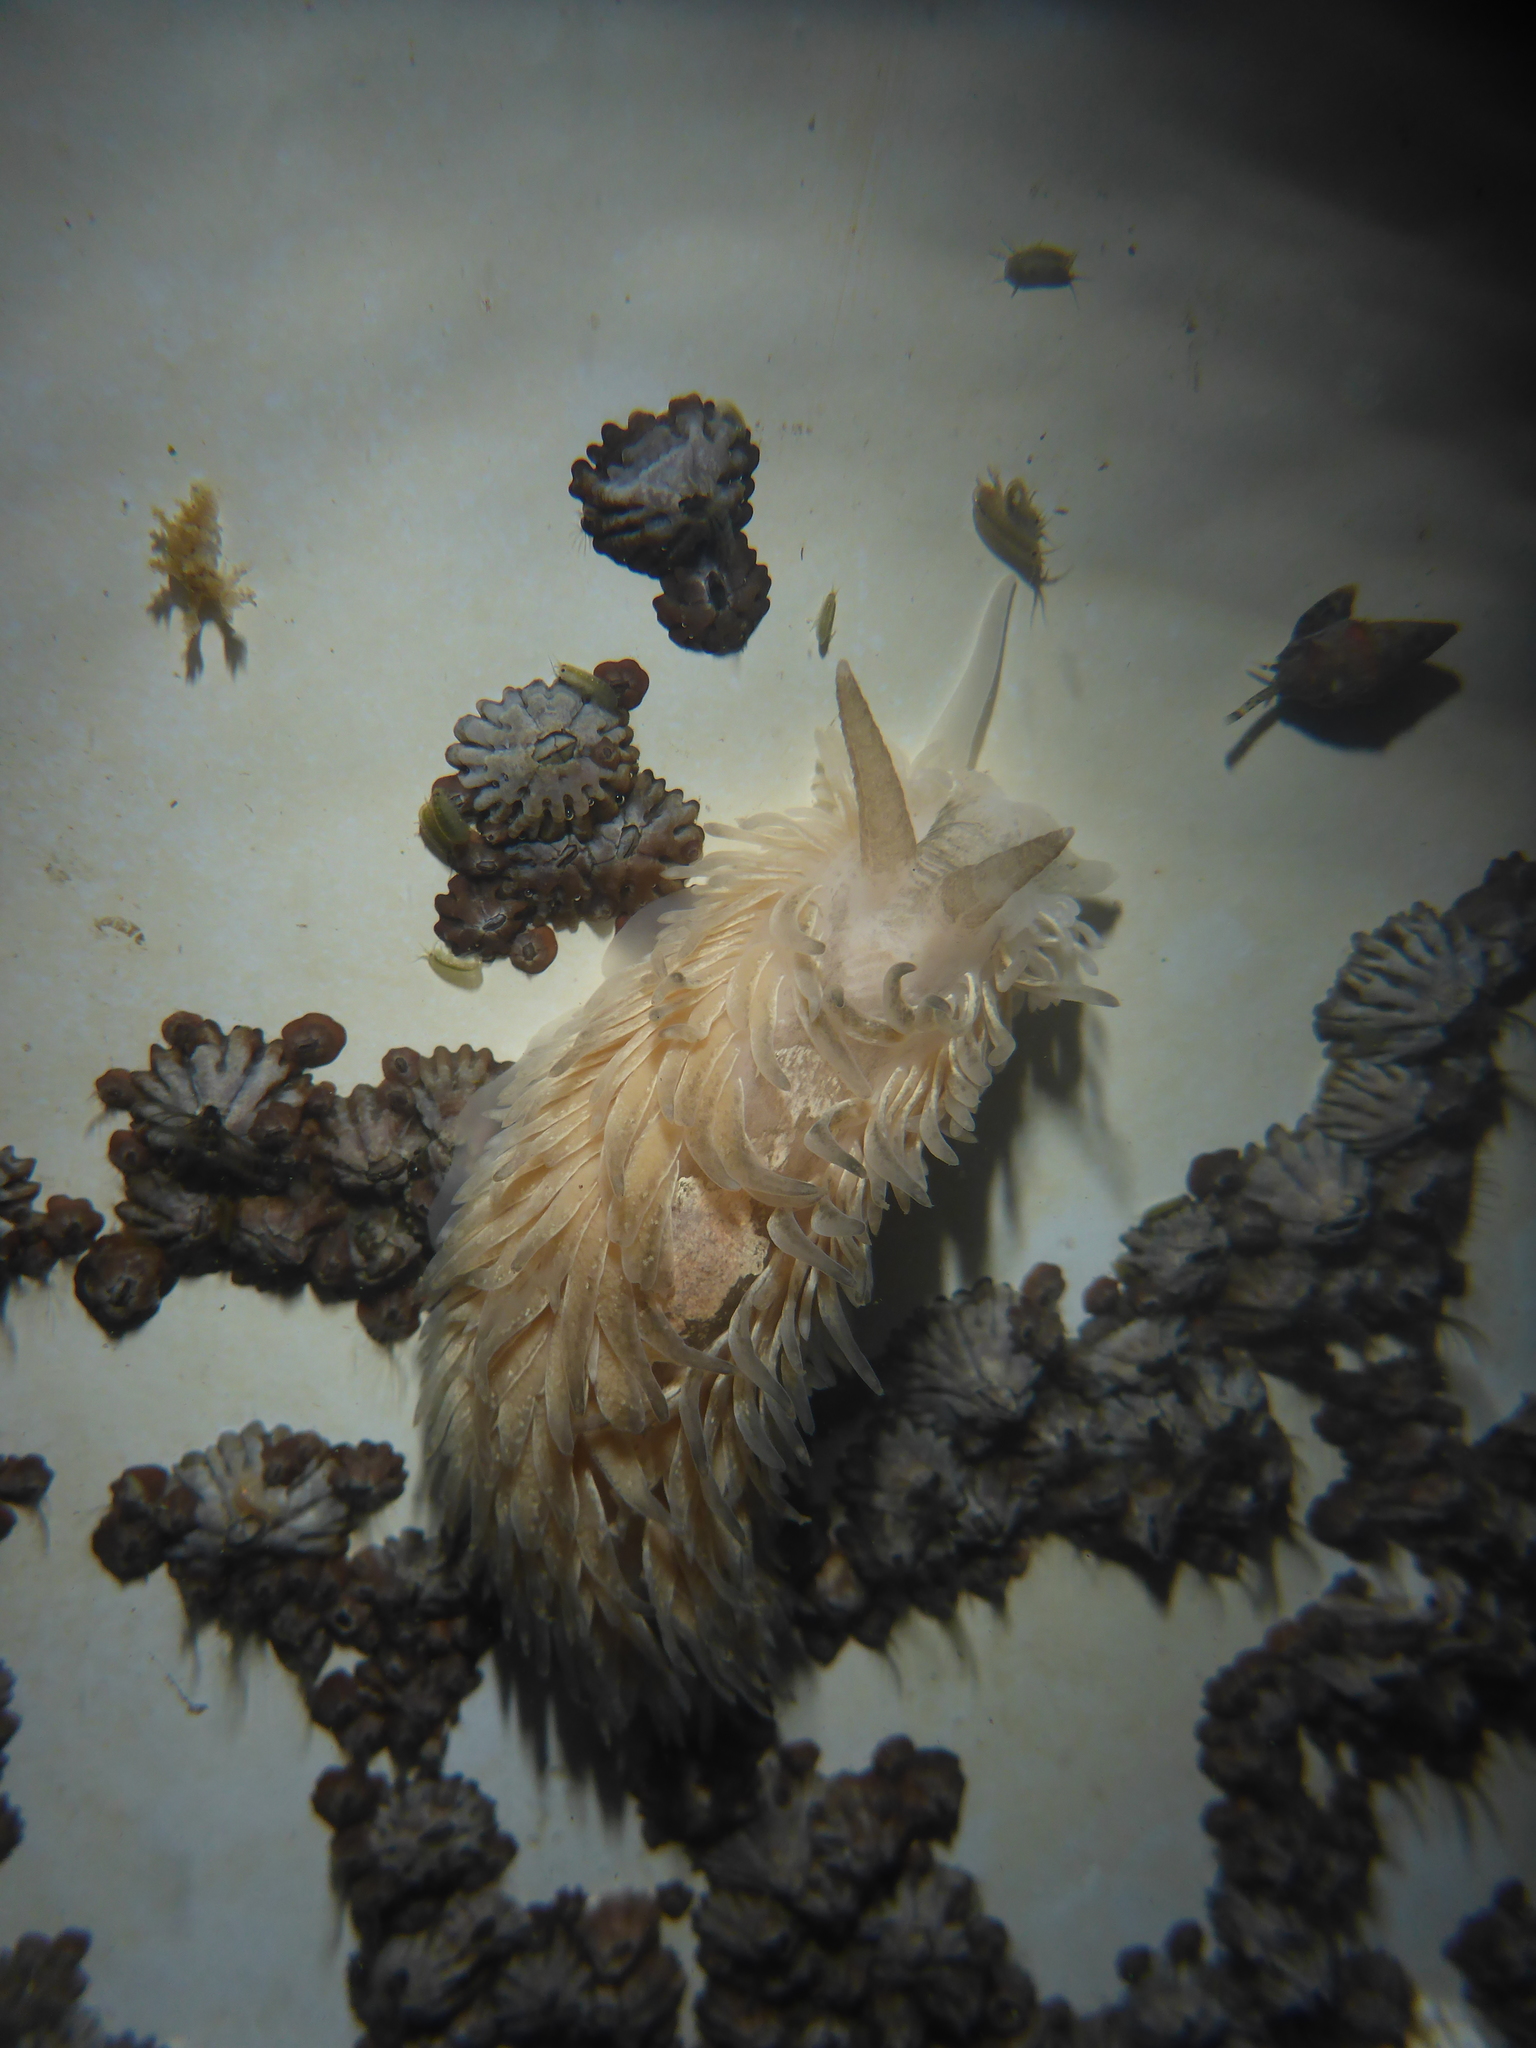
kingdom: Animalia
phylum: Mollusca
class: Gastropoda
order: Nudibranchia
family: Aeolidiidae
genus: Aeolidia
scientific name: Aeolidia loui
